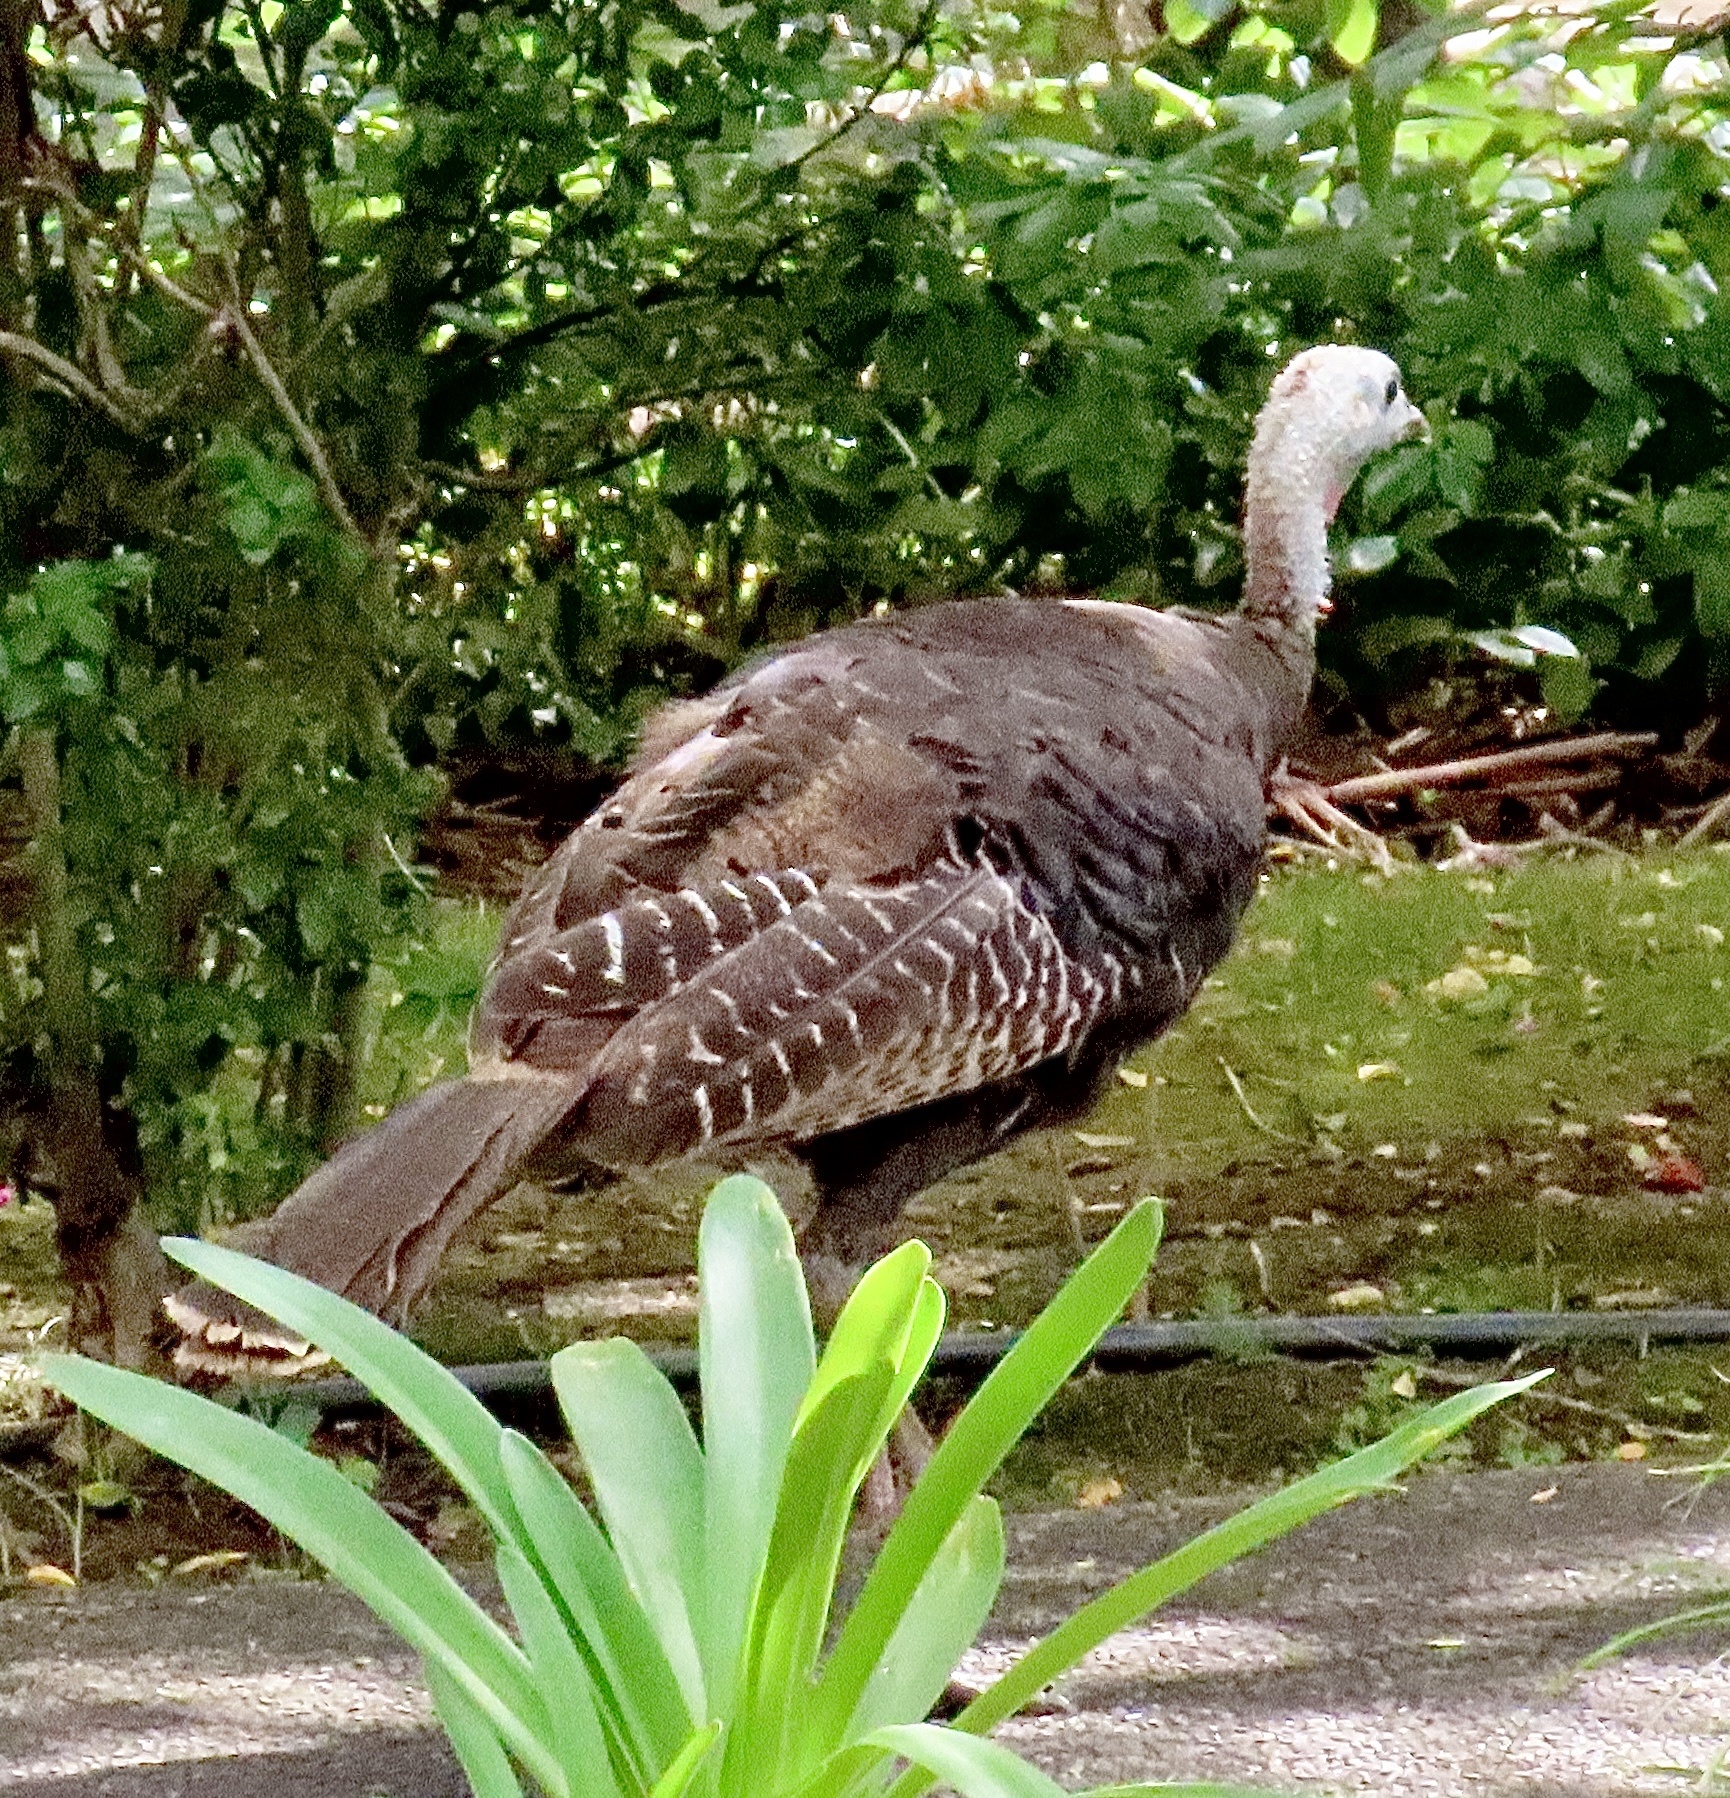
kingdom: Animalia
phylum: Chordata
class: Aves
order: Galliformes
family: Phasianidae
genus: Meleagris
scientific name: Meleagris gallopavo
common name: Wild turkey
